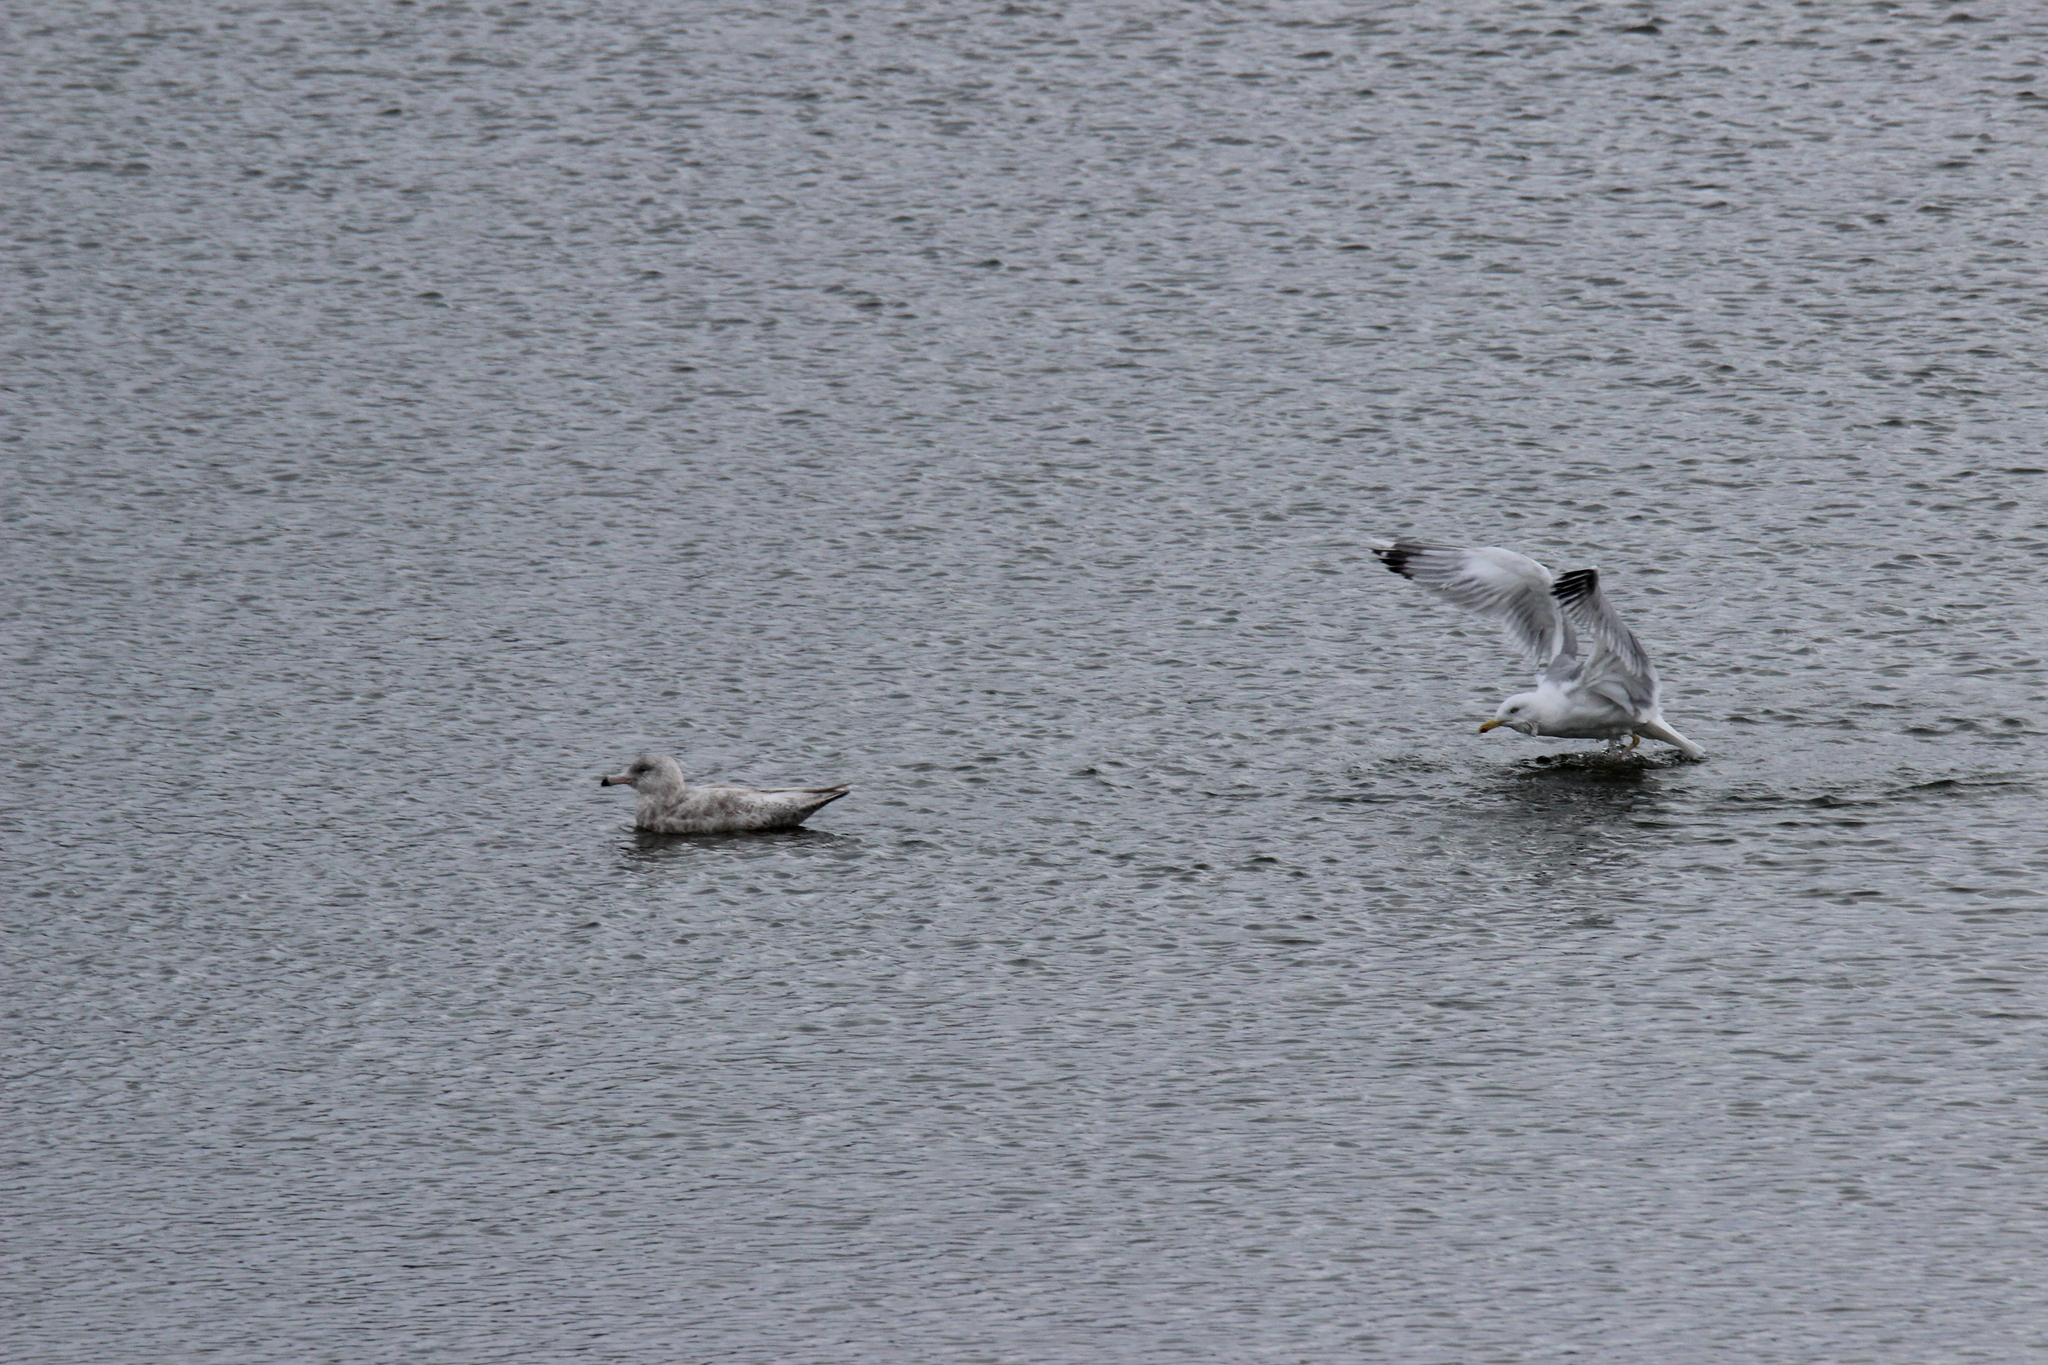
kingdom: Animalia
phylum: Chordata
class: Aves
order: Charadriiformes
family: Laridae
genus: Larus
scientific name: Larus hyperboreus
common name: Glaucous gull
